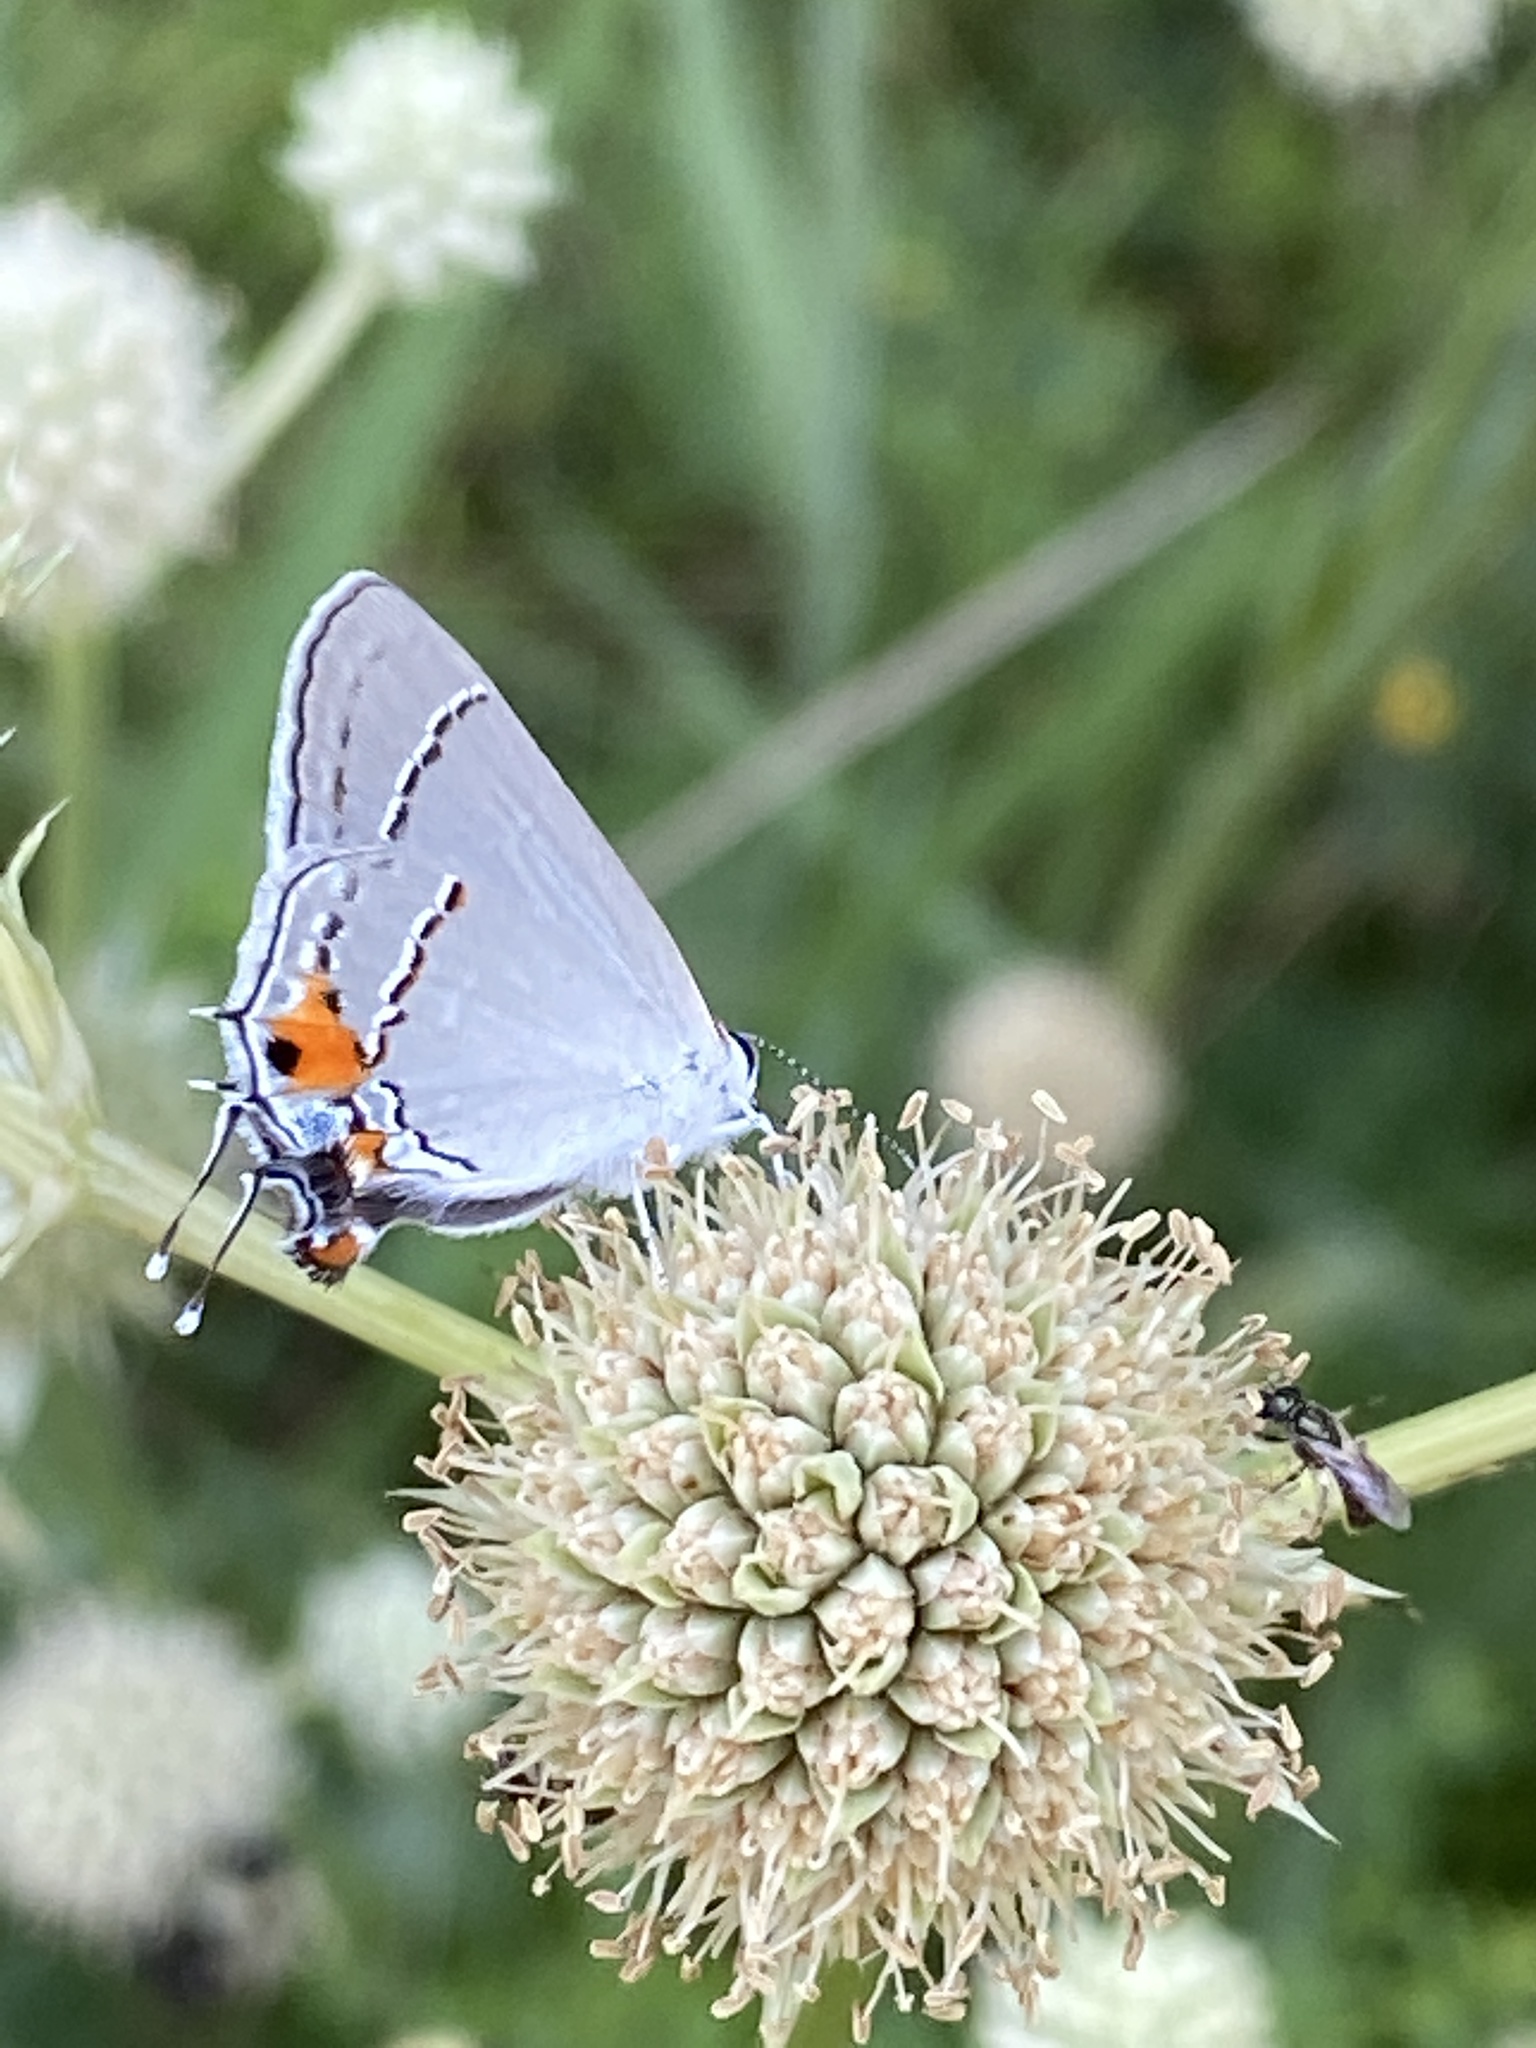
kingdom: Animalia
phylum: Arthropoda
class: Insecta
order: Lepidoptera
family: Lycaenidae
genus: Strymon
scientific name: Strymon melinus
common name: Gray hairstreak
